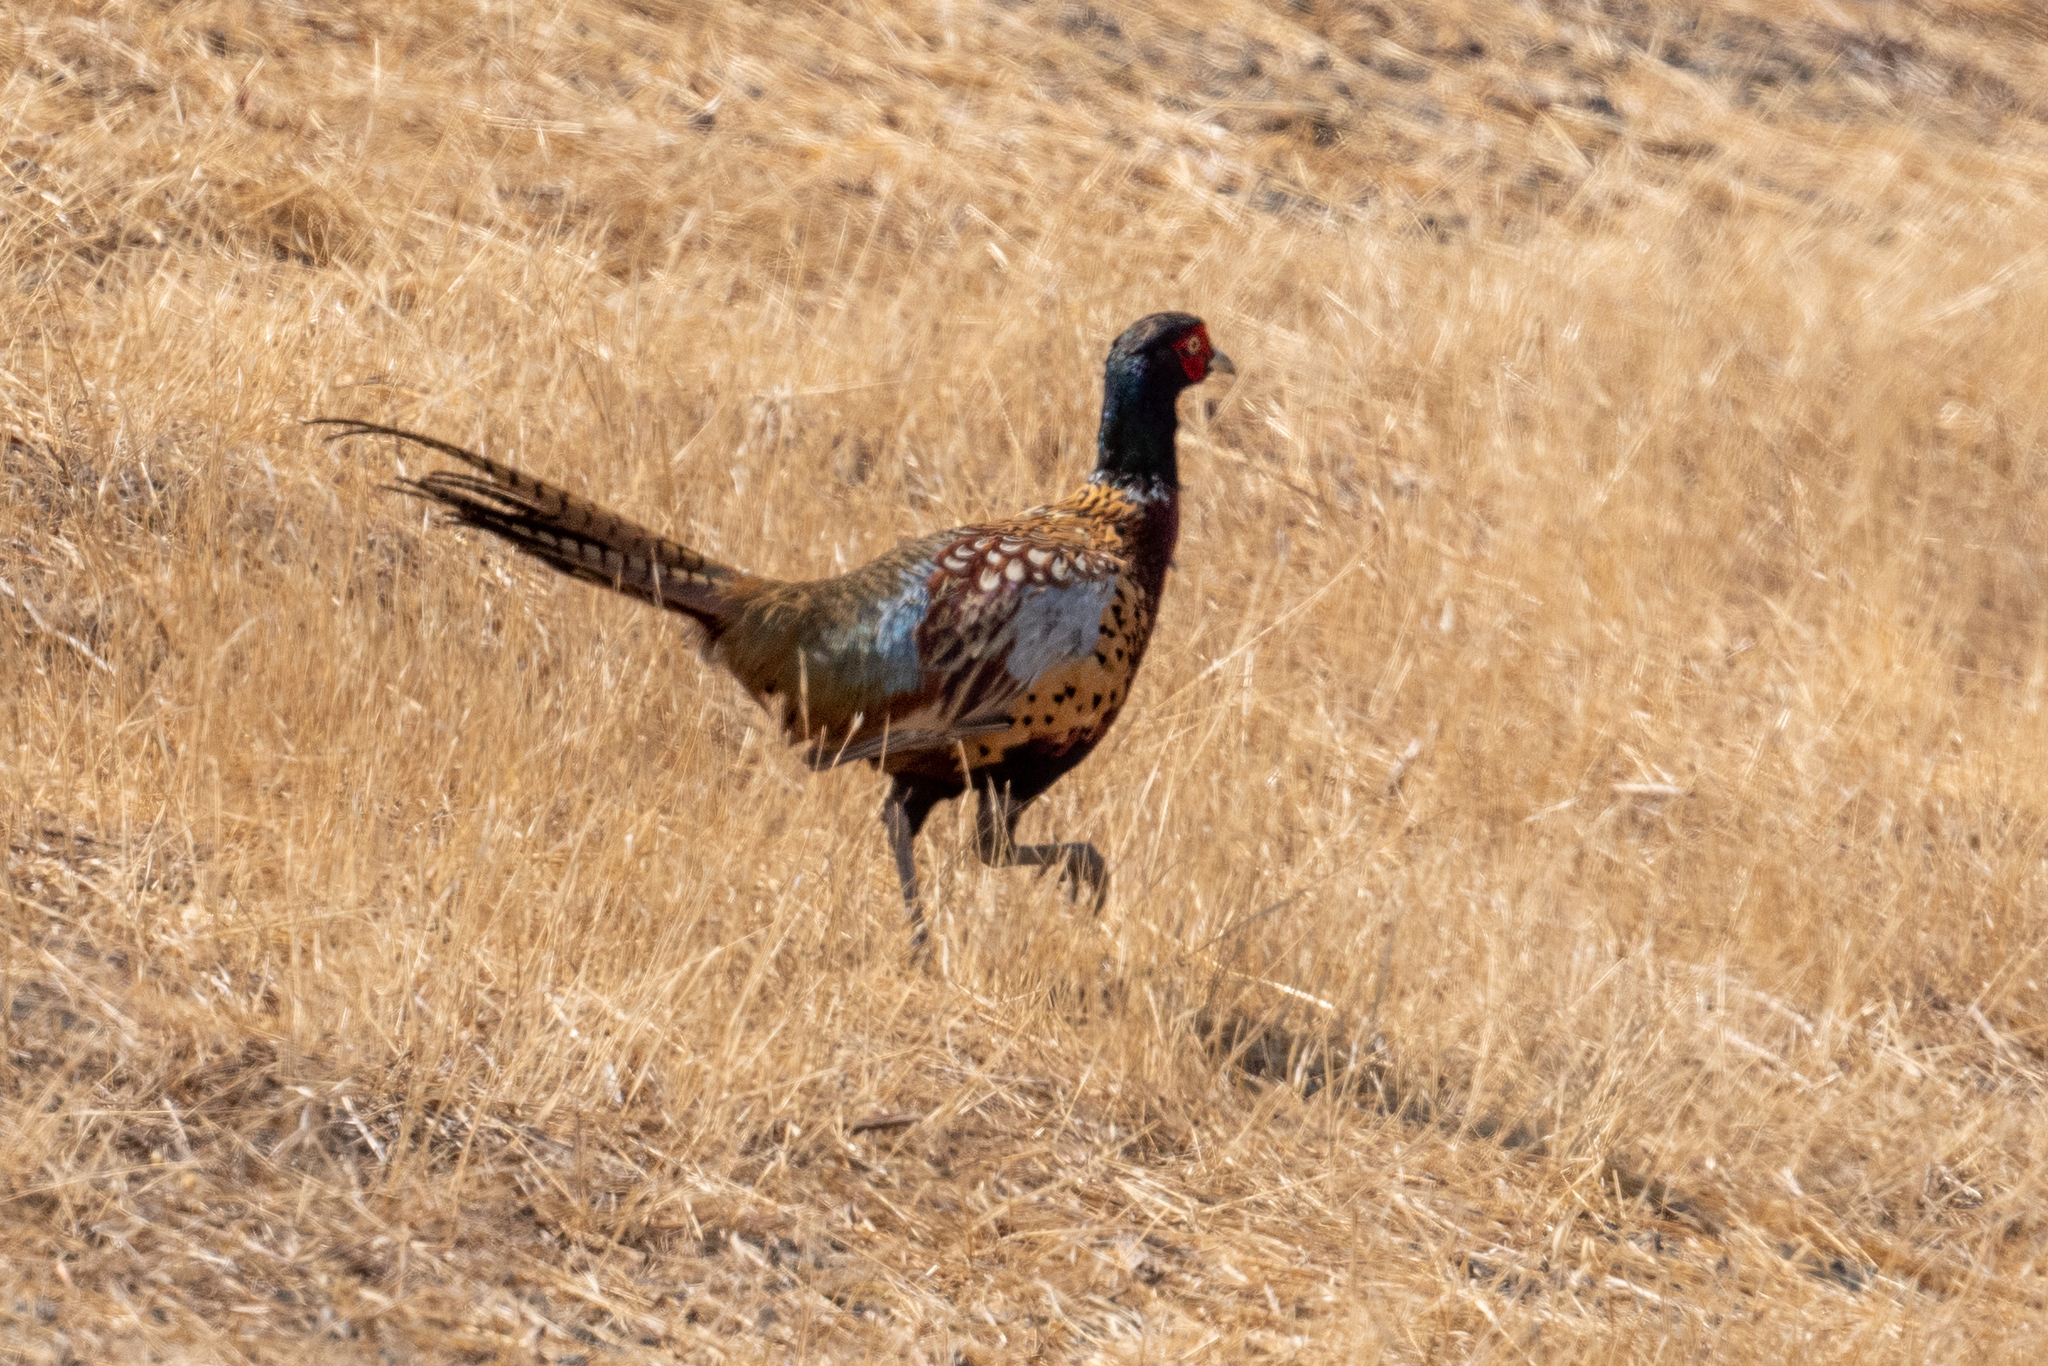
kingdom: Animalia
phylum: Chordata
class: Aves
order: Galliformes
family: Phasianidae
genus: Phasianus
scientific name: Phasianus colchicus
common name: Common pheasant
